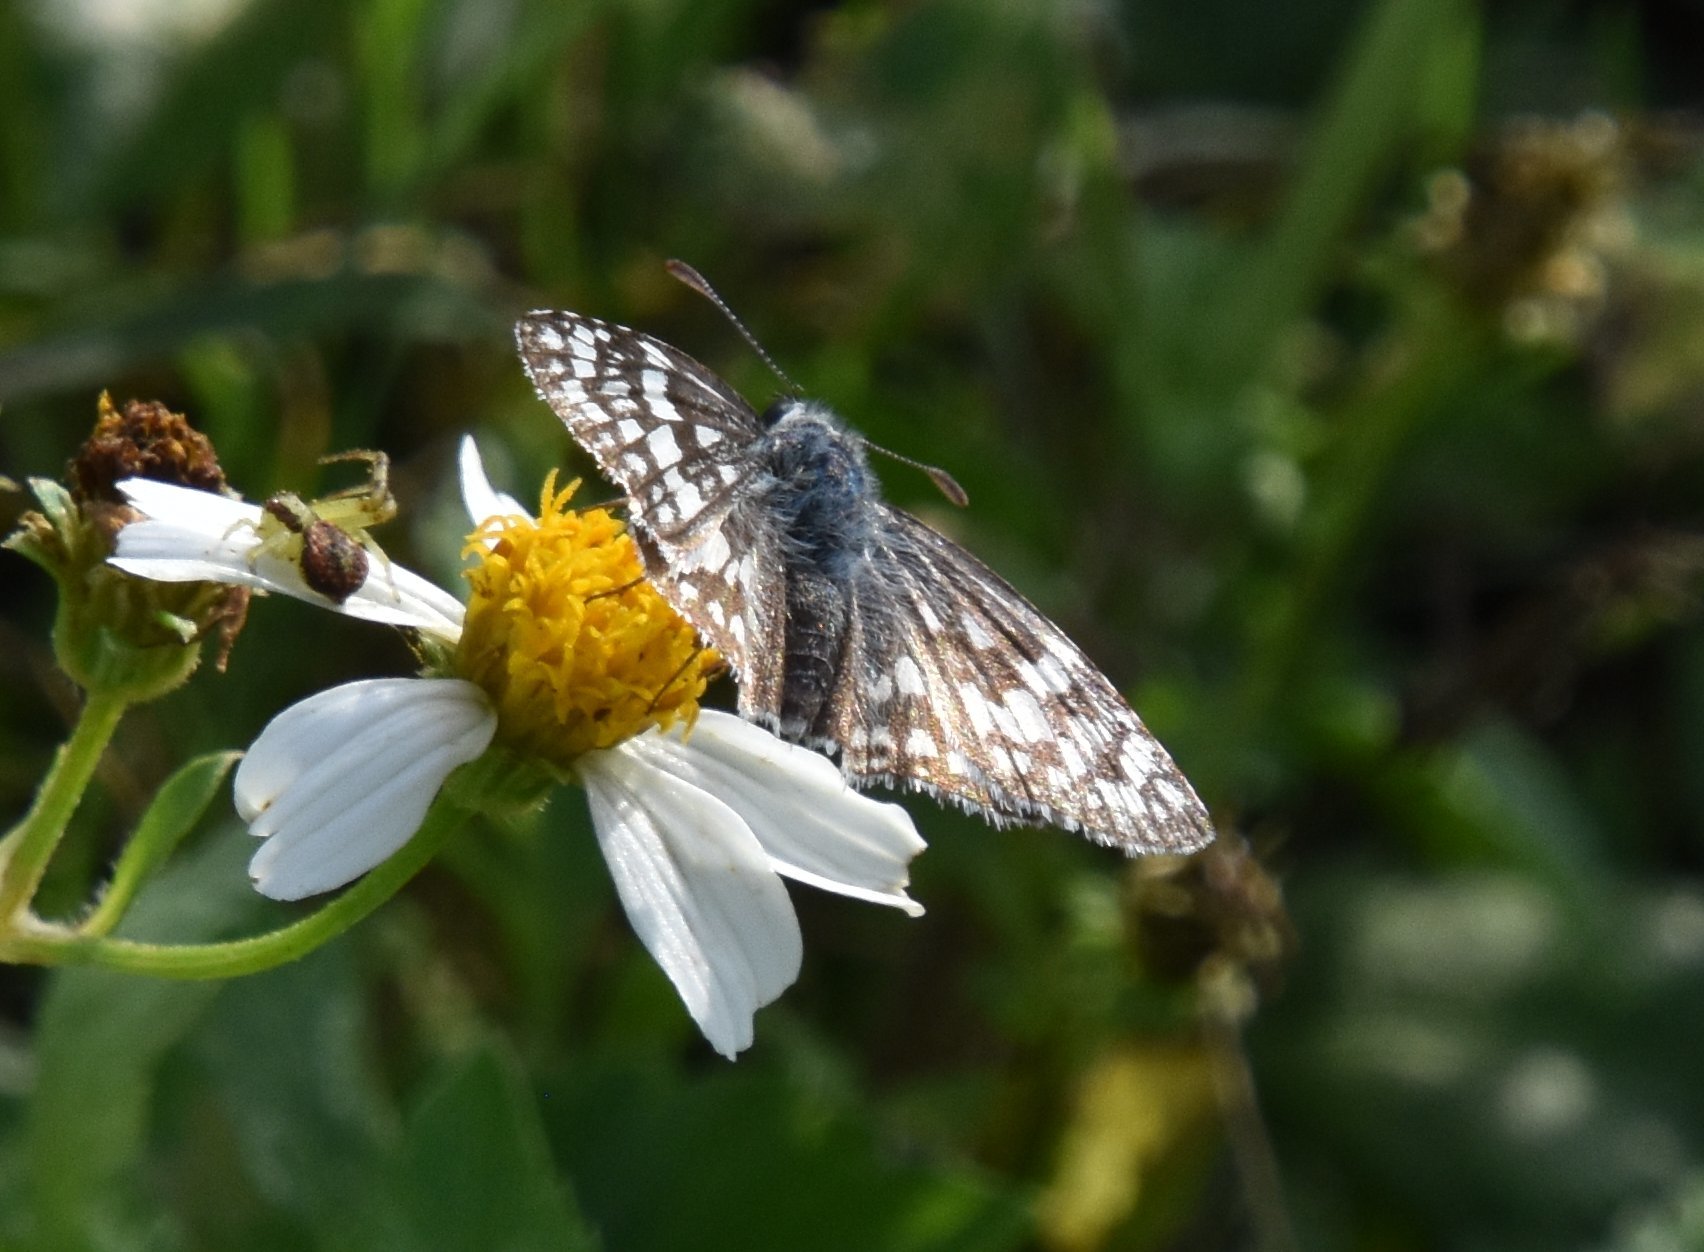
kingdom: Animalia
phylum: Arthropoda
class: Insecta
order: Lepidoptera
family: Hesperiidae
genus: Pyrgus
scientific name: Pyrgus oileus
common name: Tropical checkered-skipper
